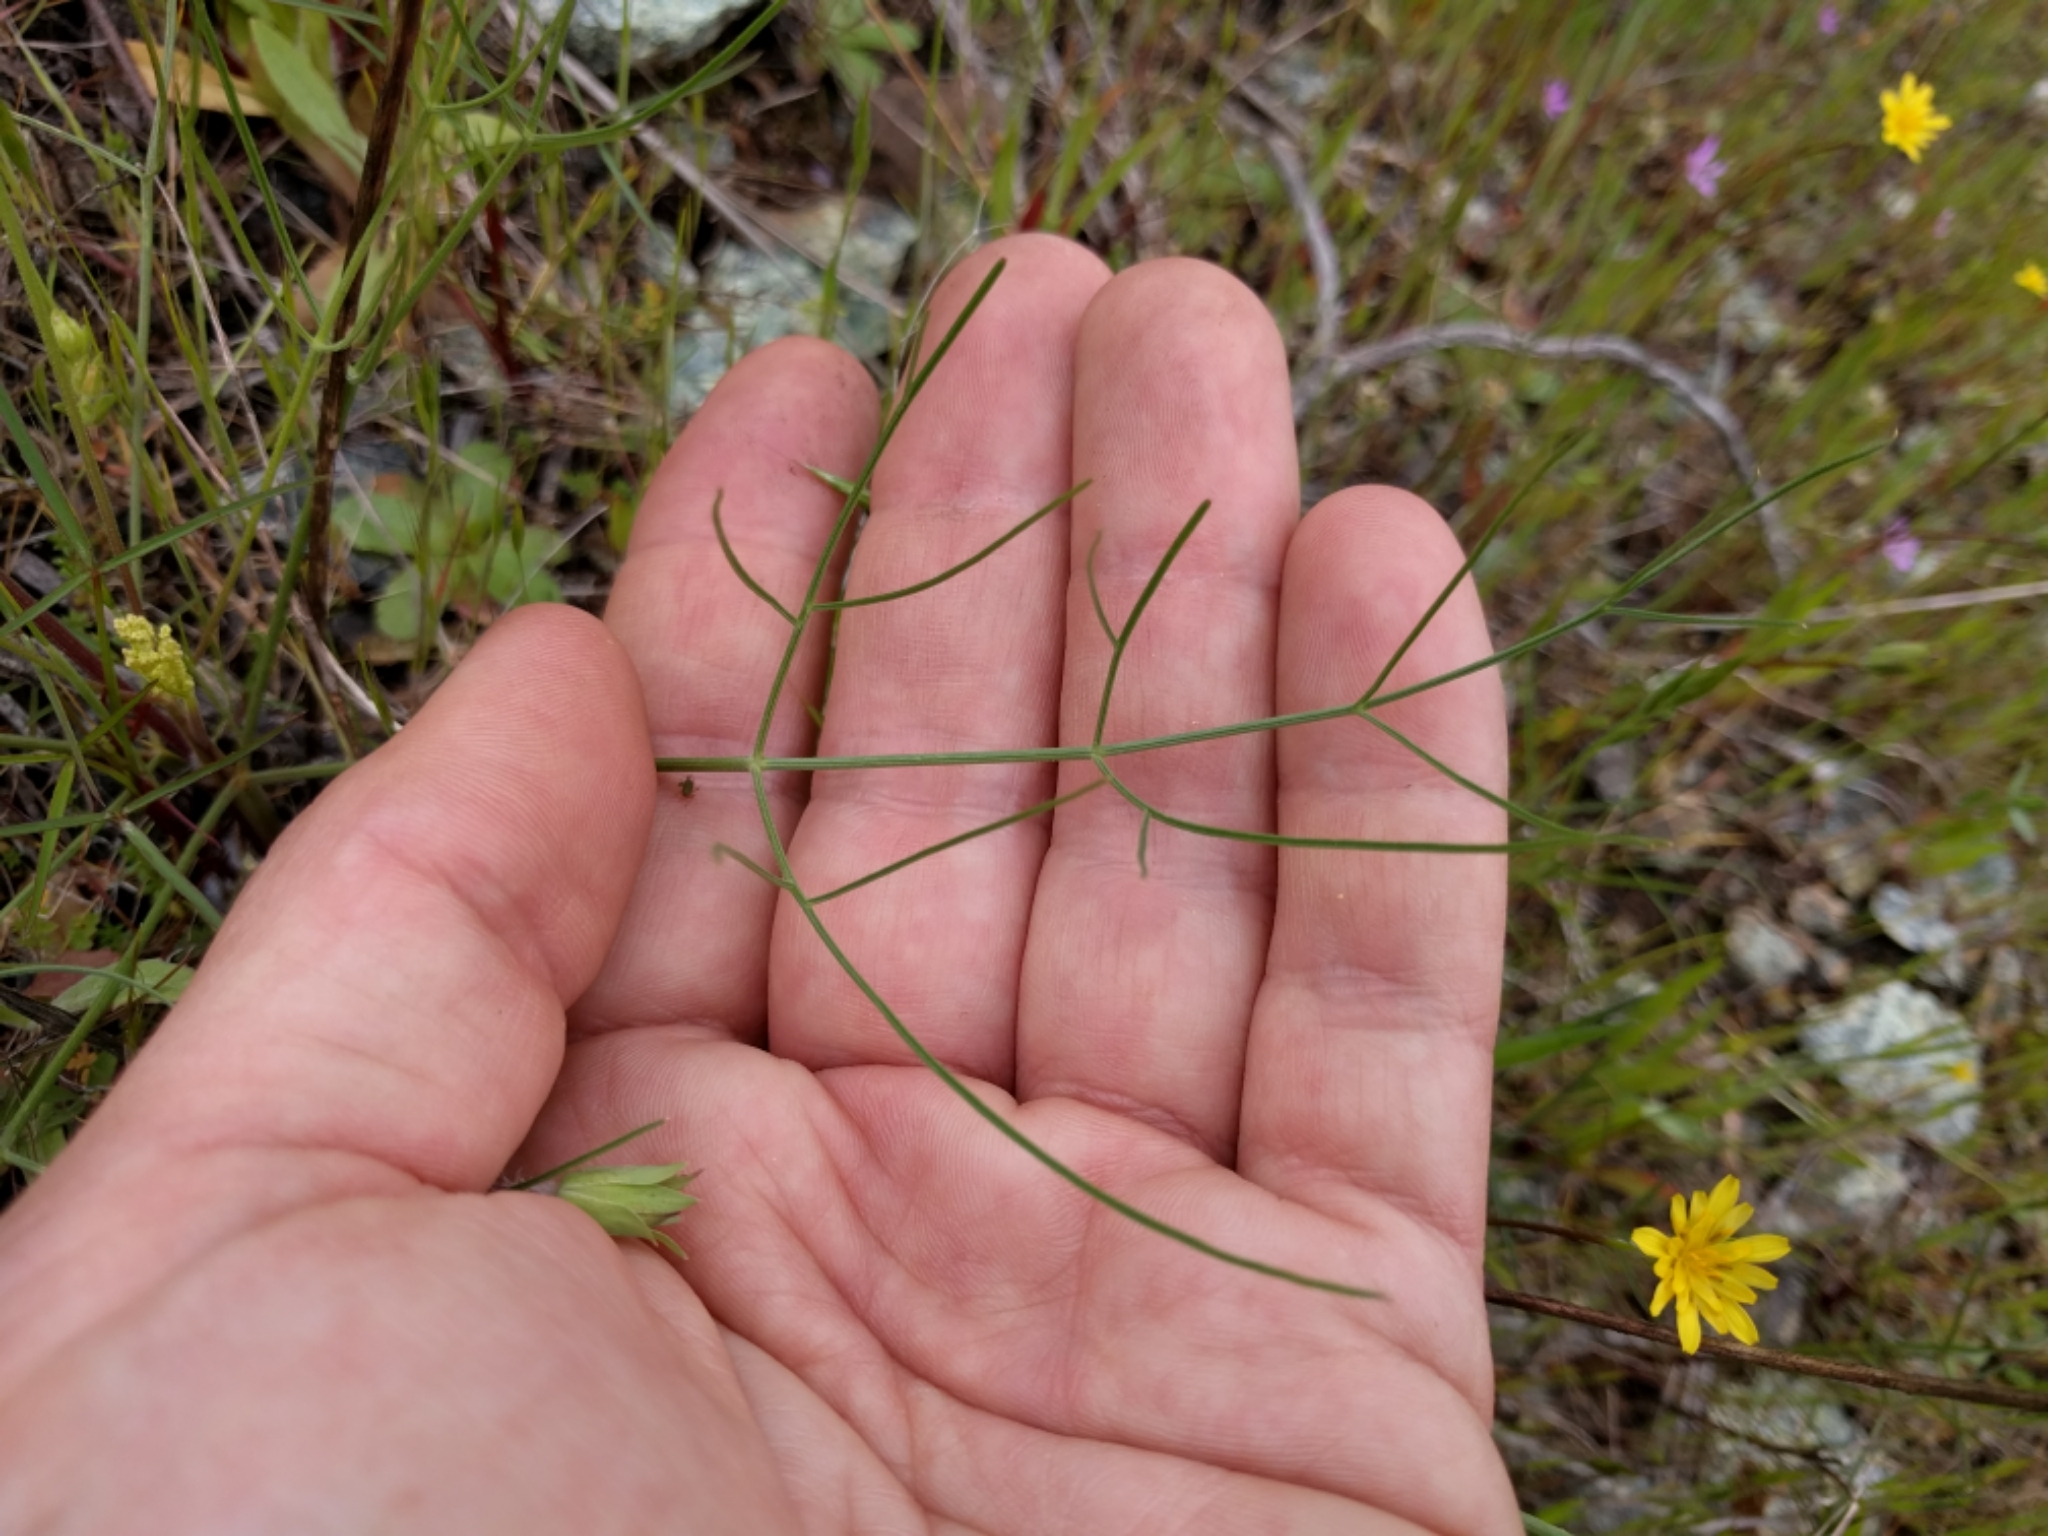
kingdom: Plantae
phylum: Tracheophyta
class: Magnoliopsida
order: Apiales
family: Apiaceae
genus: Lomatium
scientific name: Lomatium marginatum
